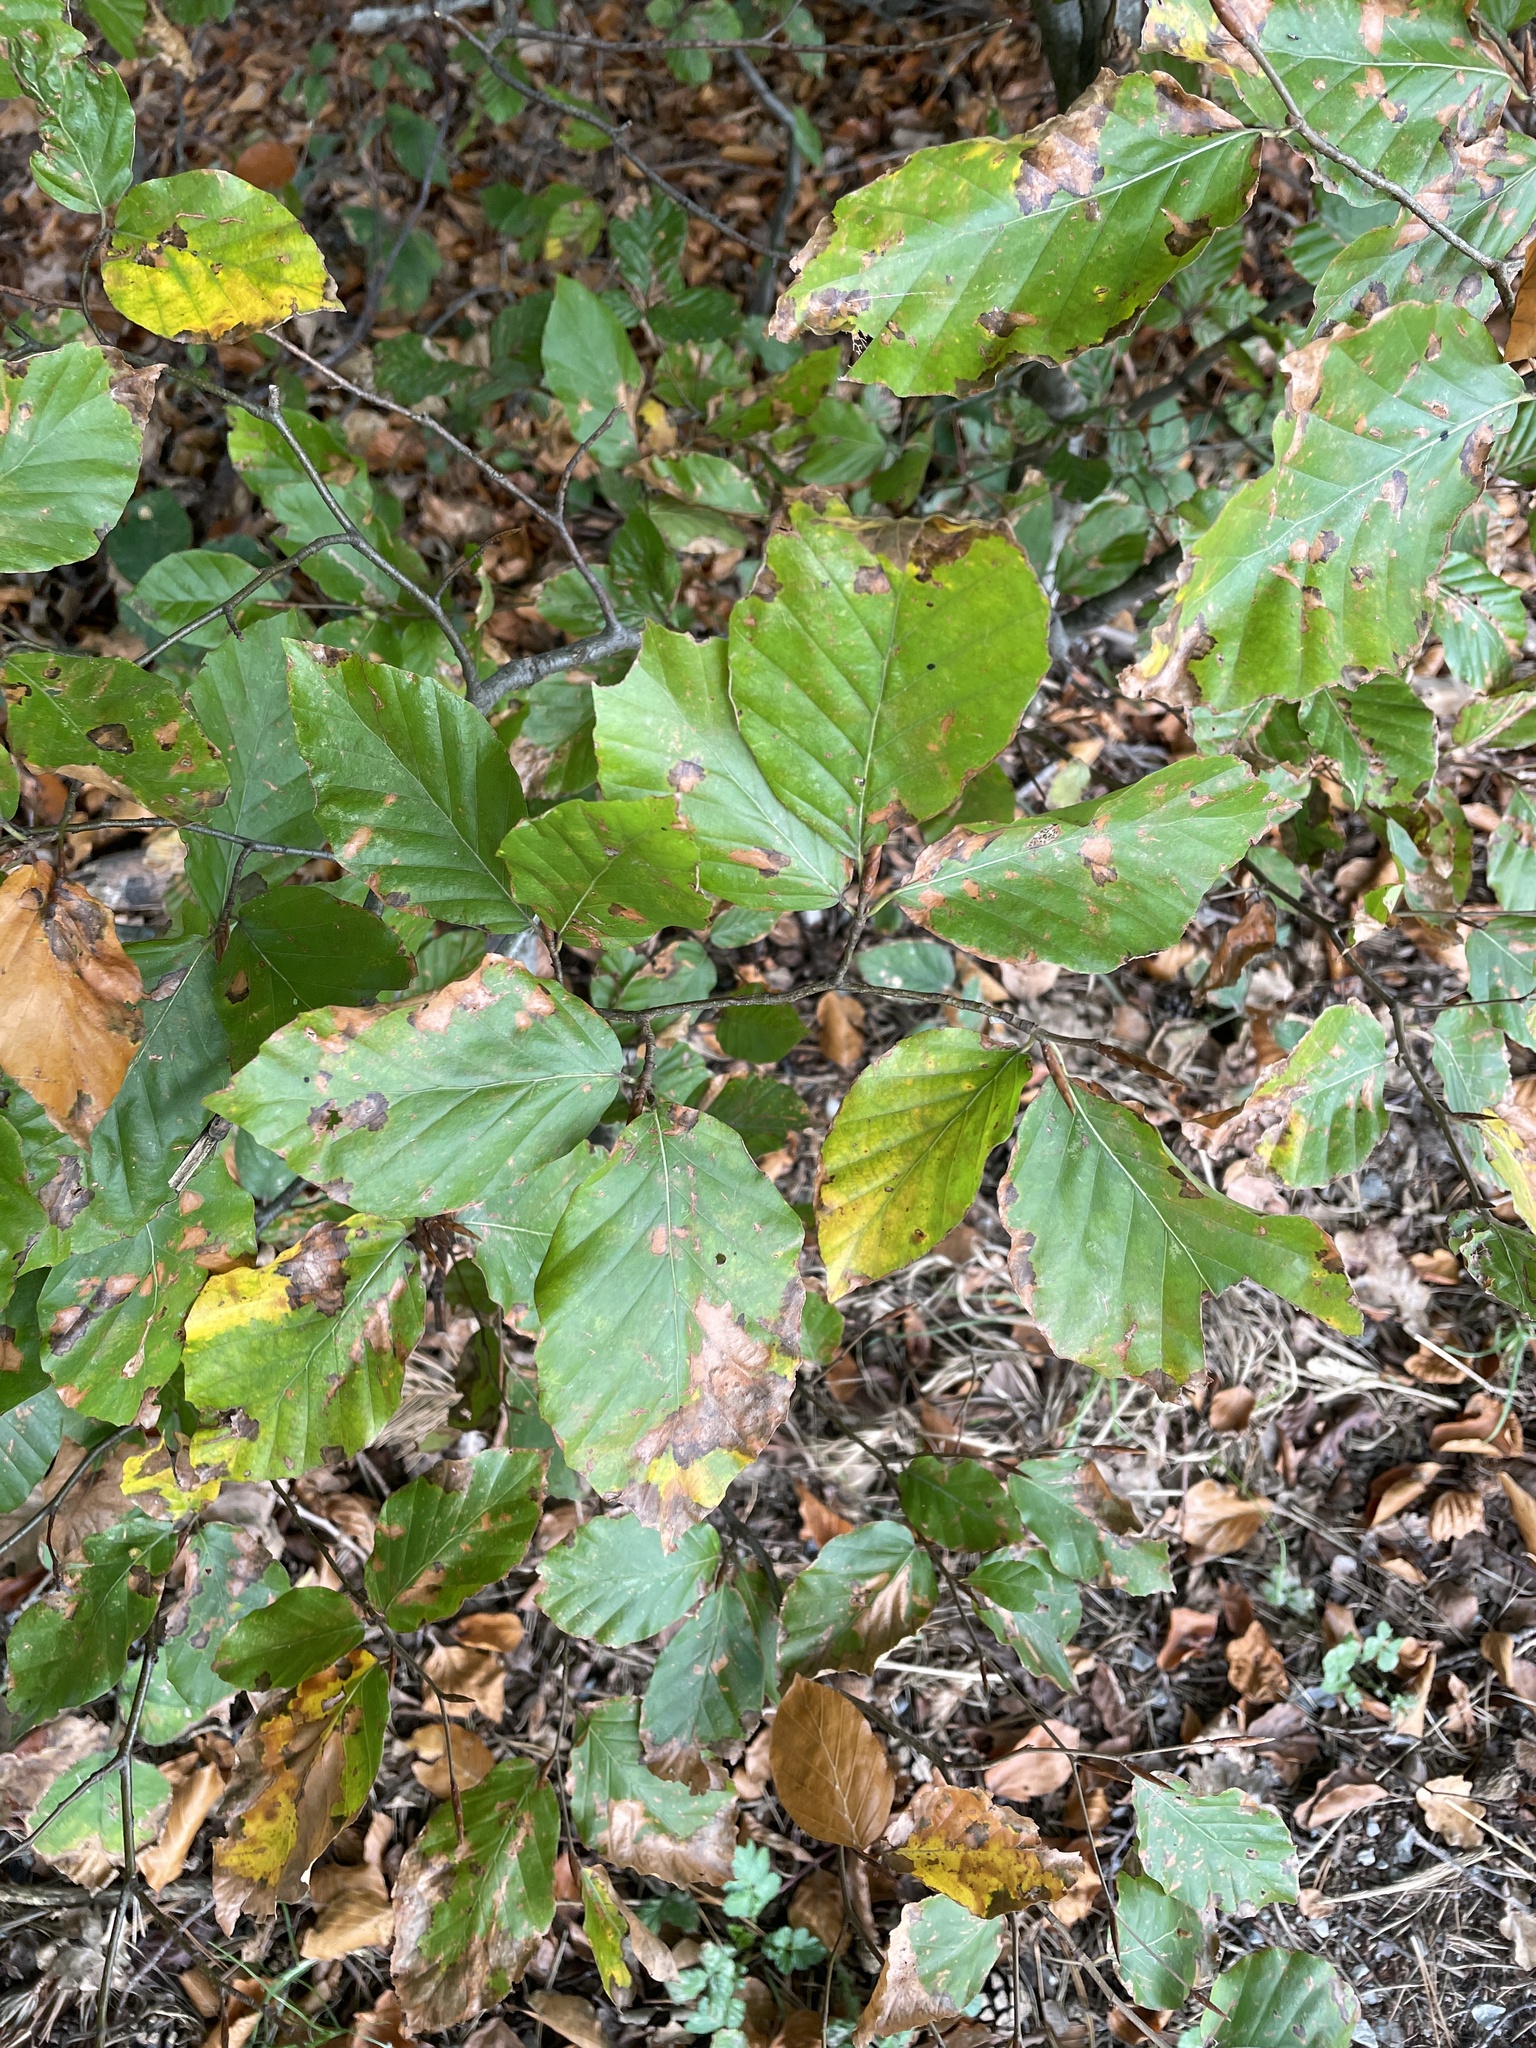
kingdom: Plantae
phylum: Tracheophyta
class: Magnoliopsida
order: Fagales
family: Fagaceae
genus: Fagus
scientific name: Fagus sylvatica
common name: Beech
